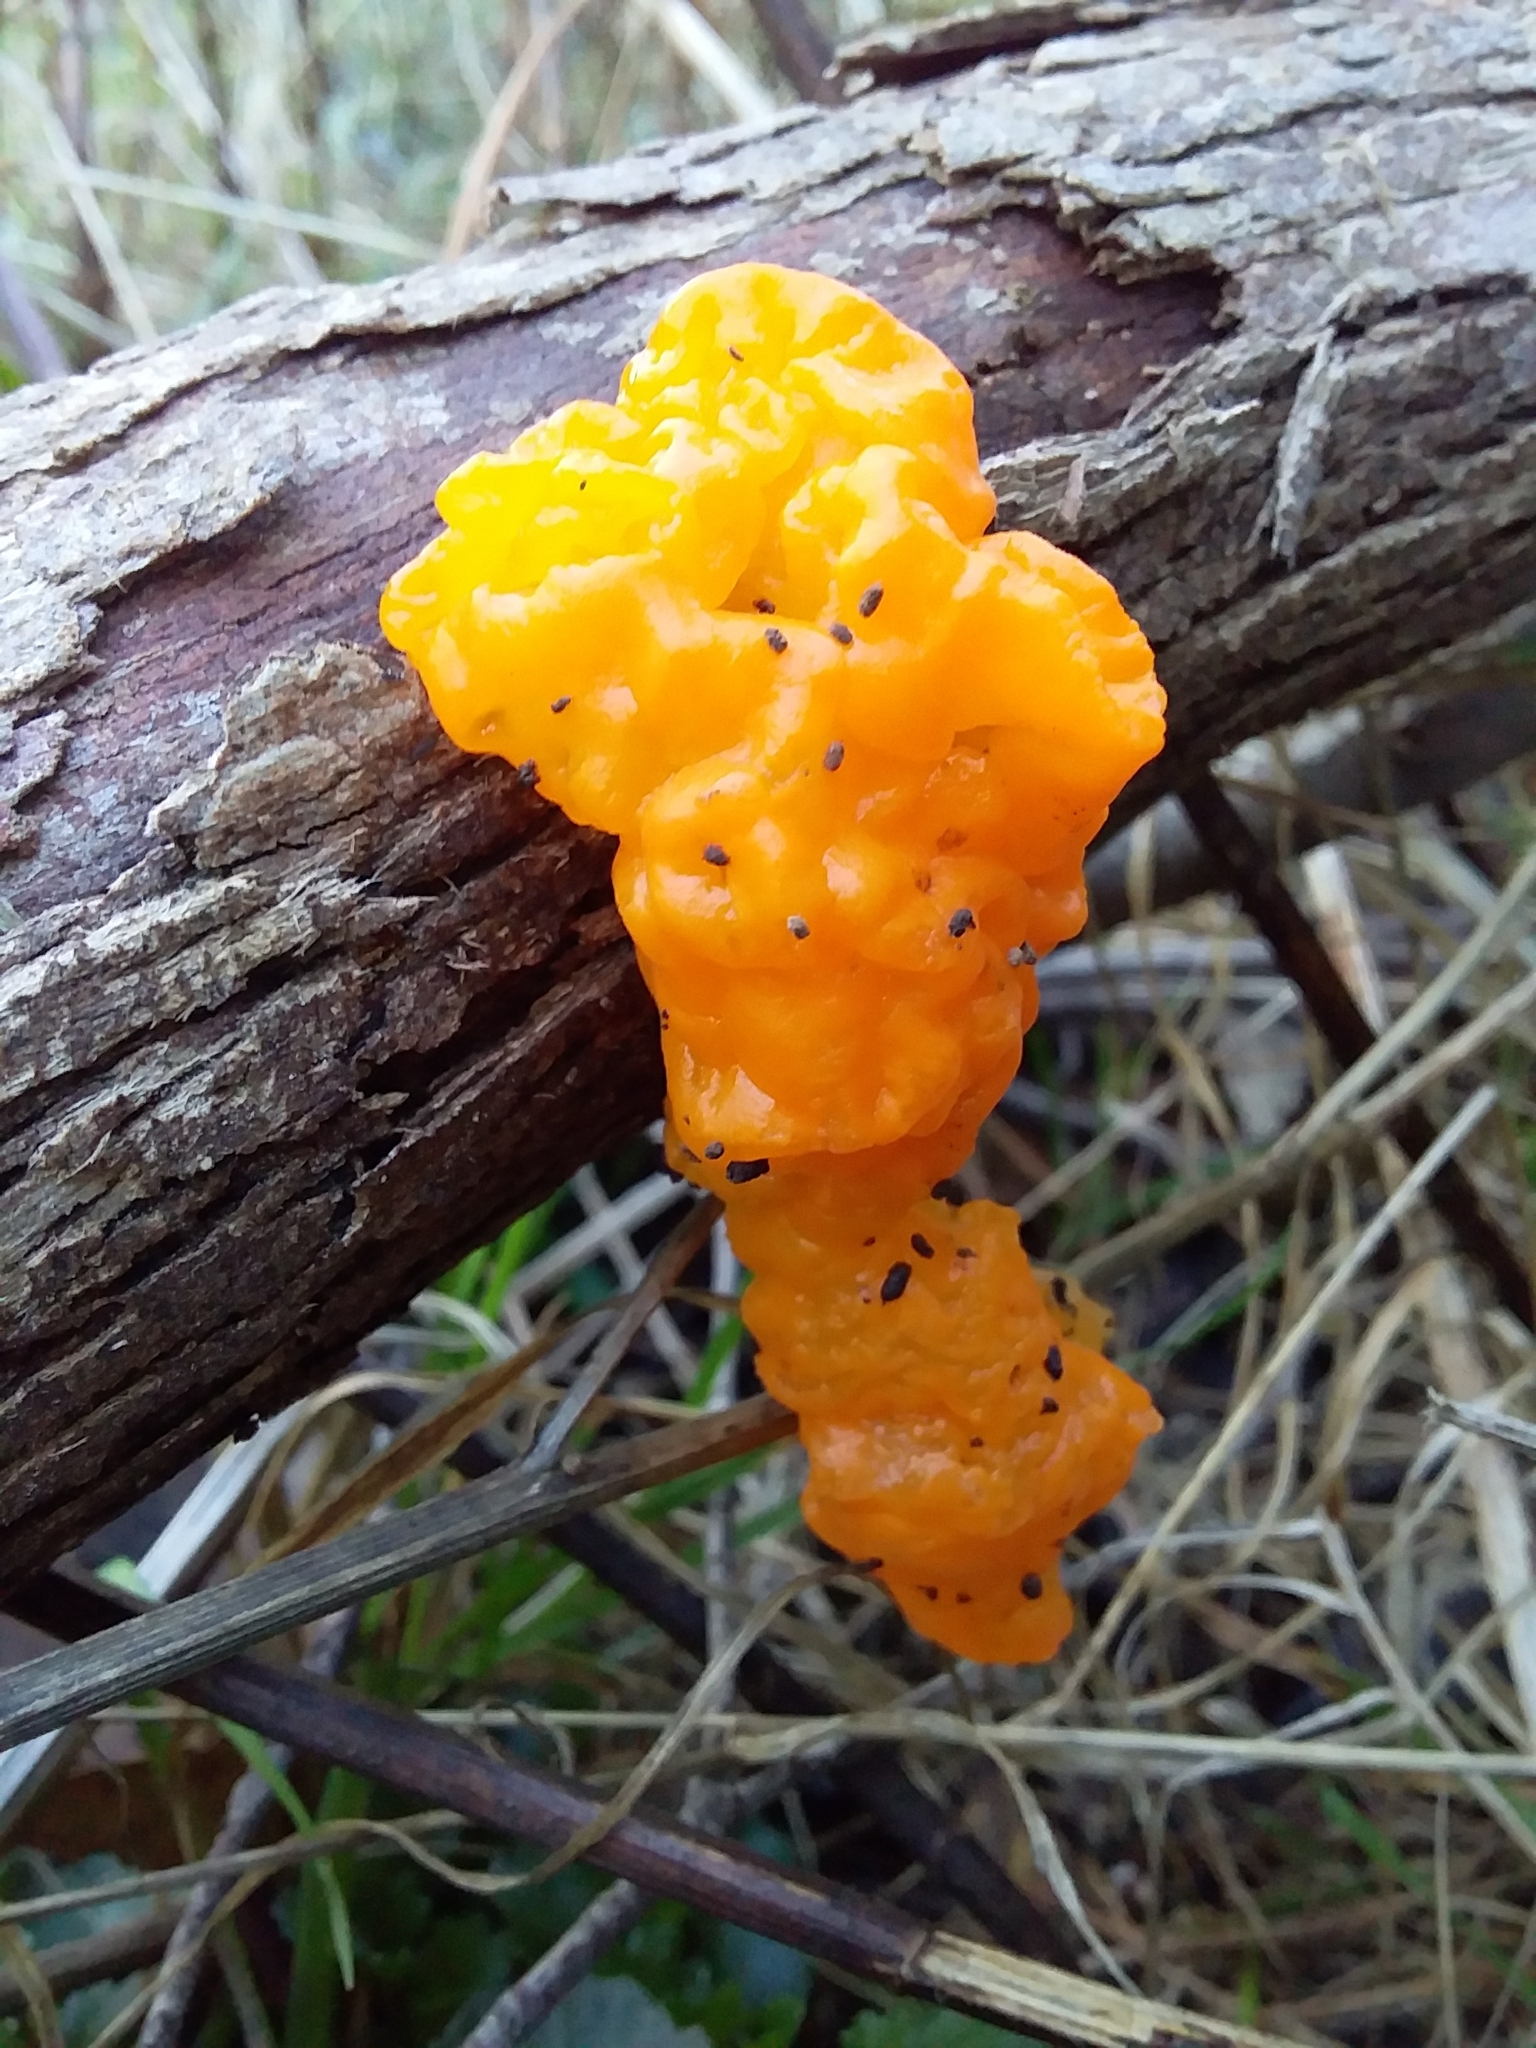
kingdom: Fungi
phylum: Basidiomycota
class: Tremellomycetes
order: Tremellales
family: Tremellaceae
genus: Tremella
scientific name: Tremella mesenterica
